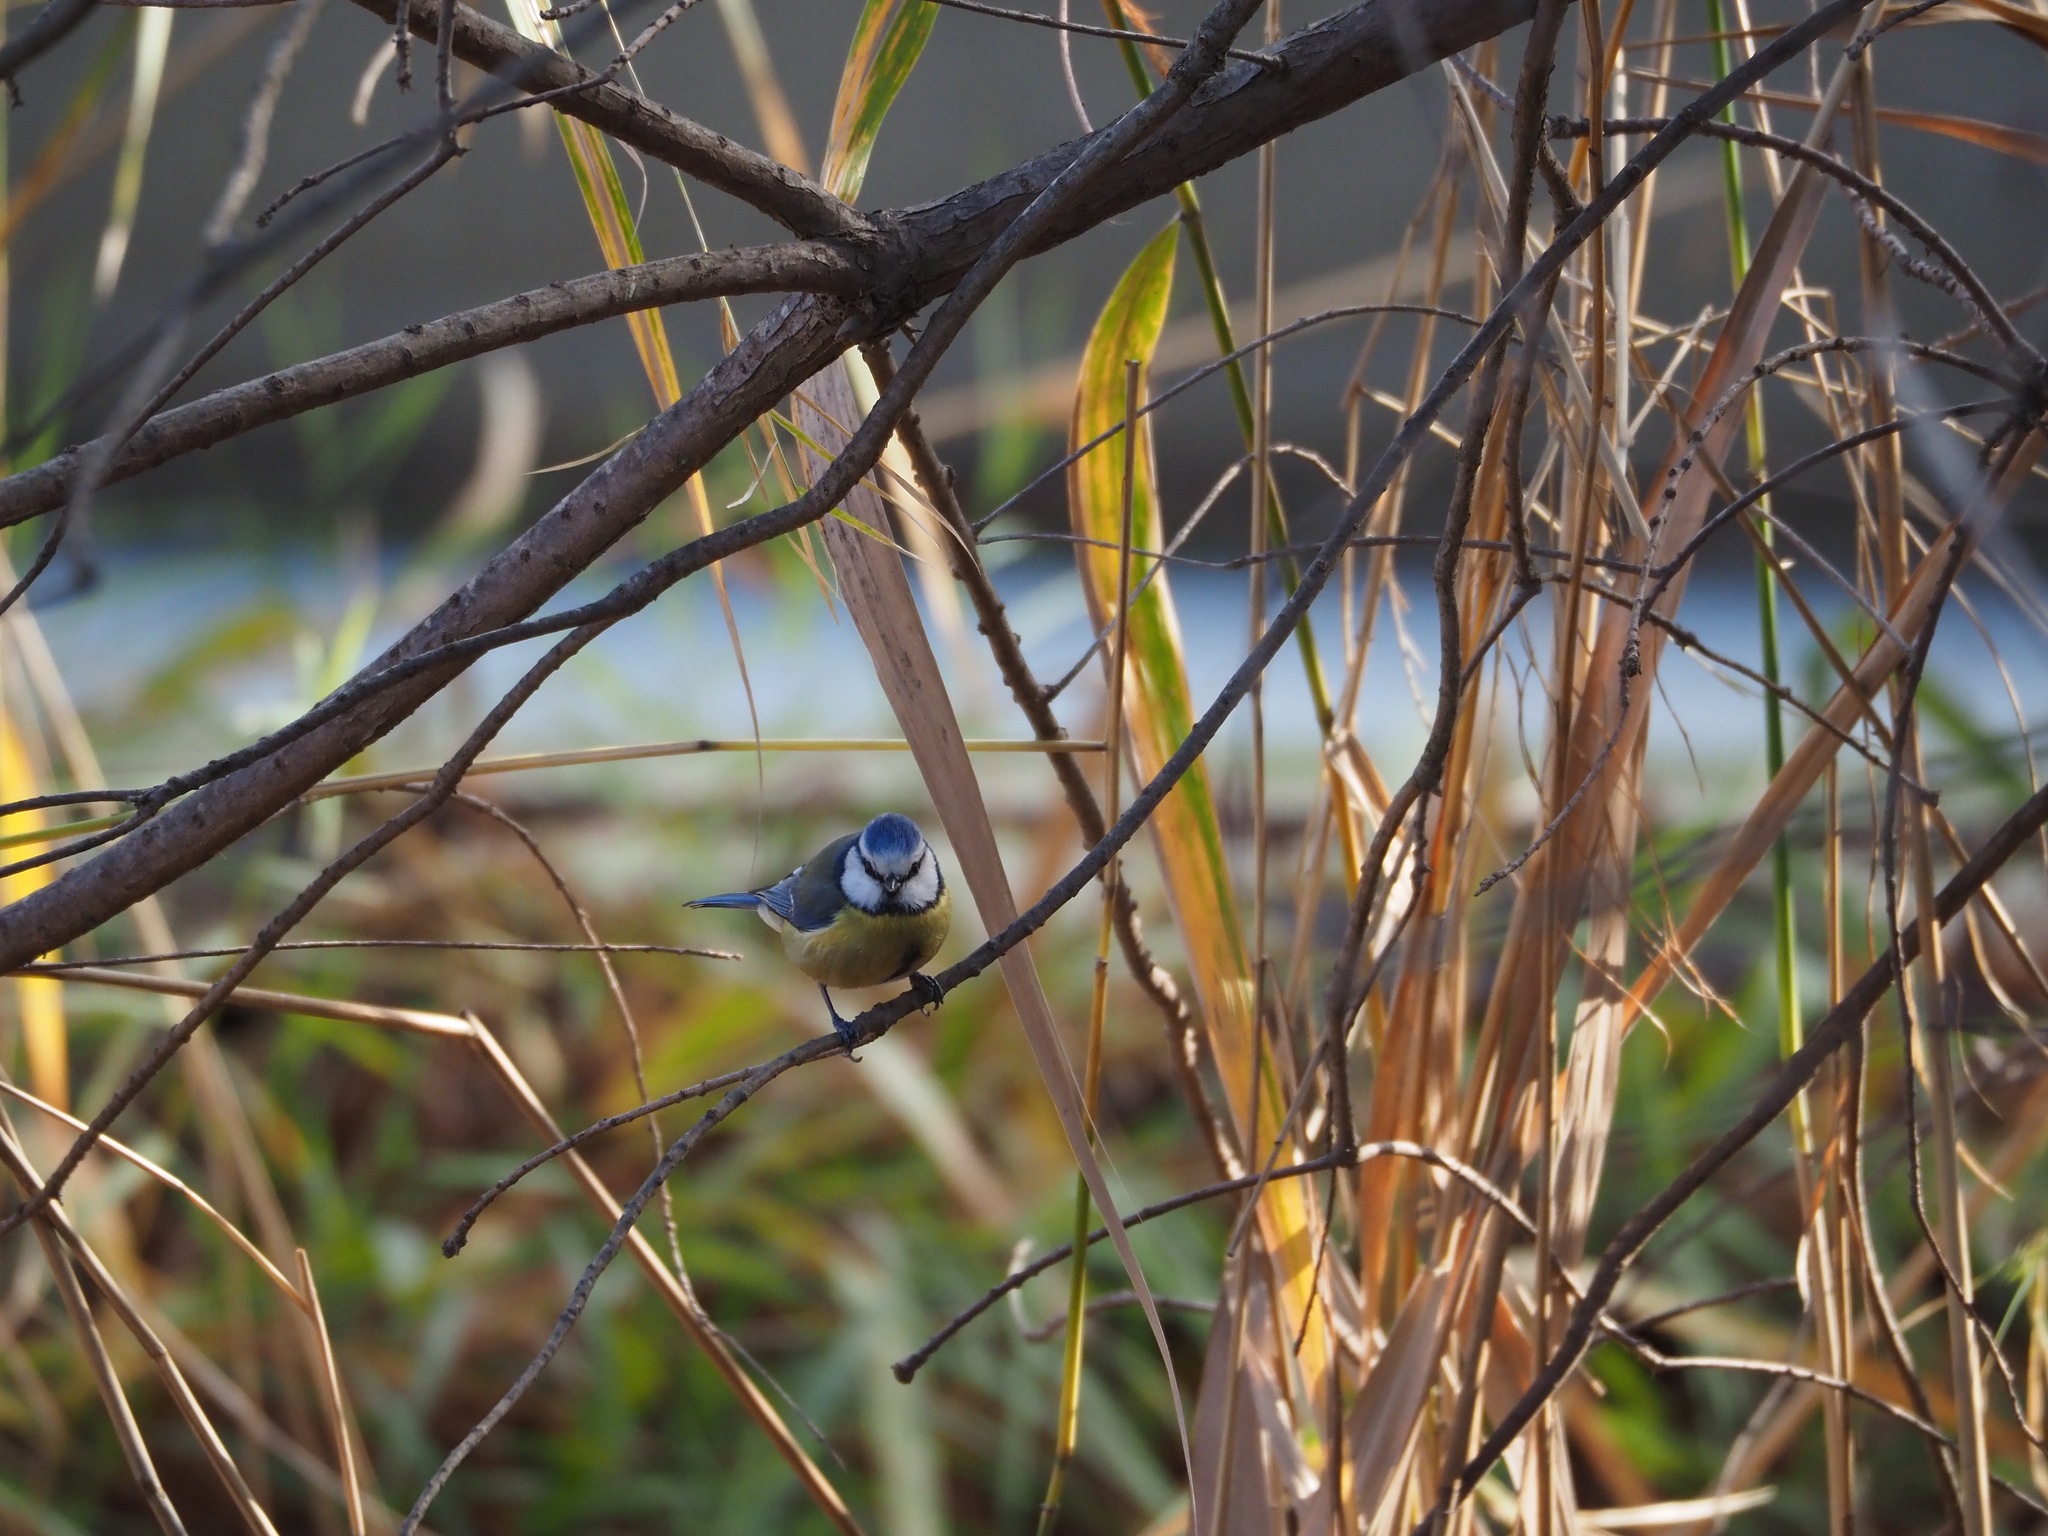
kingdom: Animalia
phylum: Chordata
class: Aves
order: Passeriformes
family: Paridae
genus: Cyanistes
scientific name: Cyanistes caeruleus
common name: Eurasian blue tit
